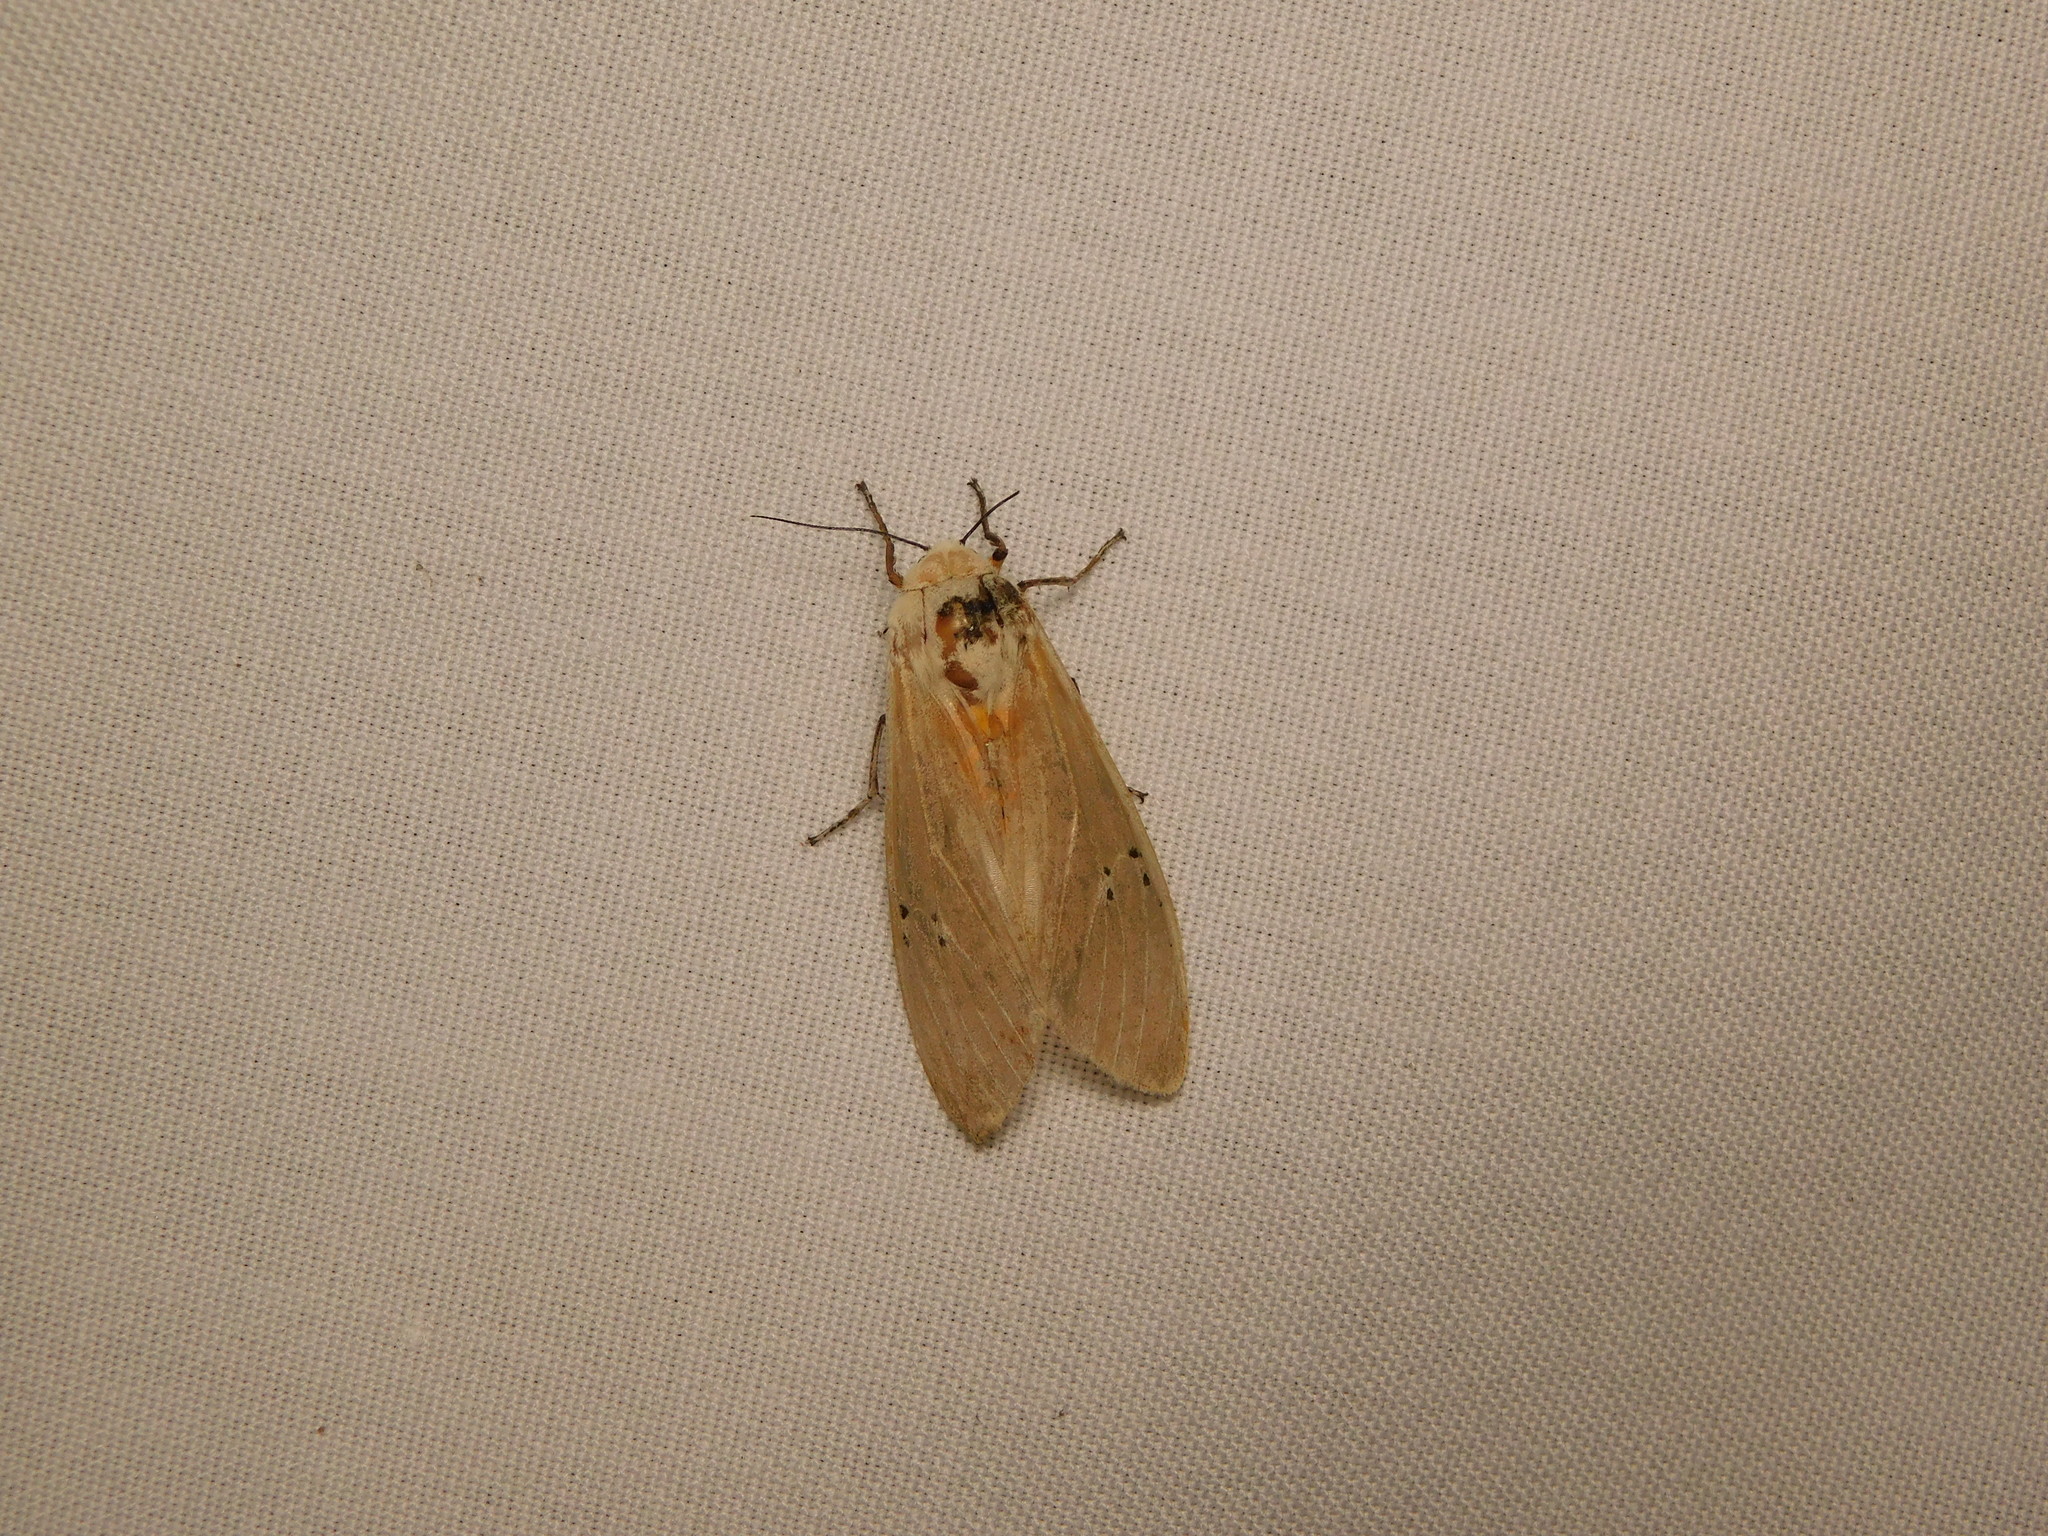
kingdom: Animalia
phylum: Arthropoda
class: Insecta
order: Lepidoptera
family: Erebidae
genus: Creatonotos
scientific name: Creatonotos transiens
